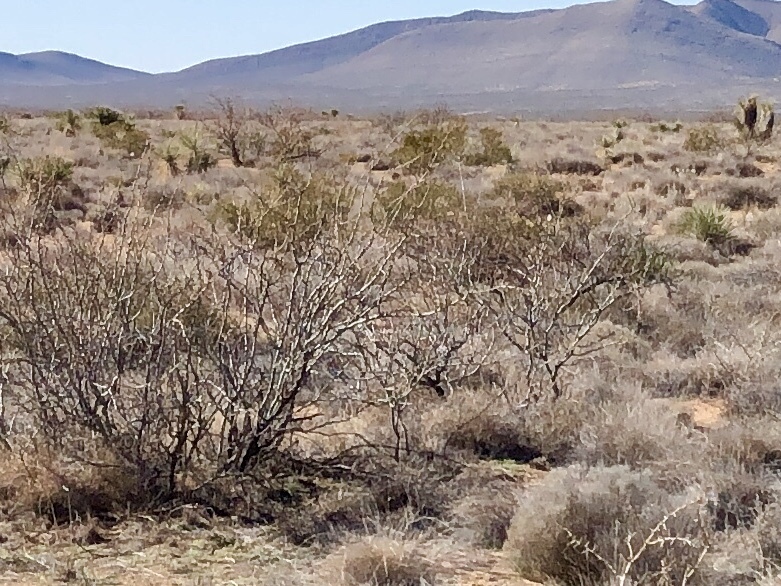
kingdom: Plantae
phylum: Tracheophyta
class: Magnoliopsida
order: Zygophyllales
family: Zygophyllaceae
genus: Larrea
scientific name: Larrea tridentata
